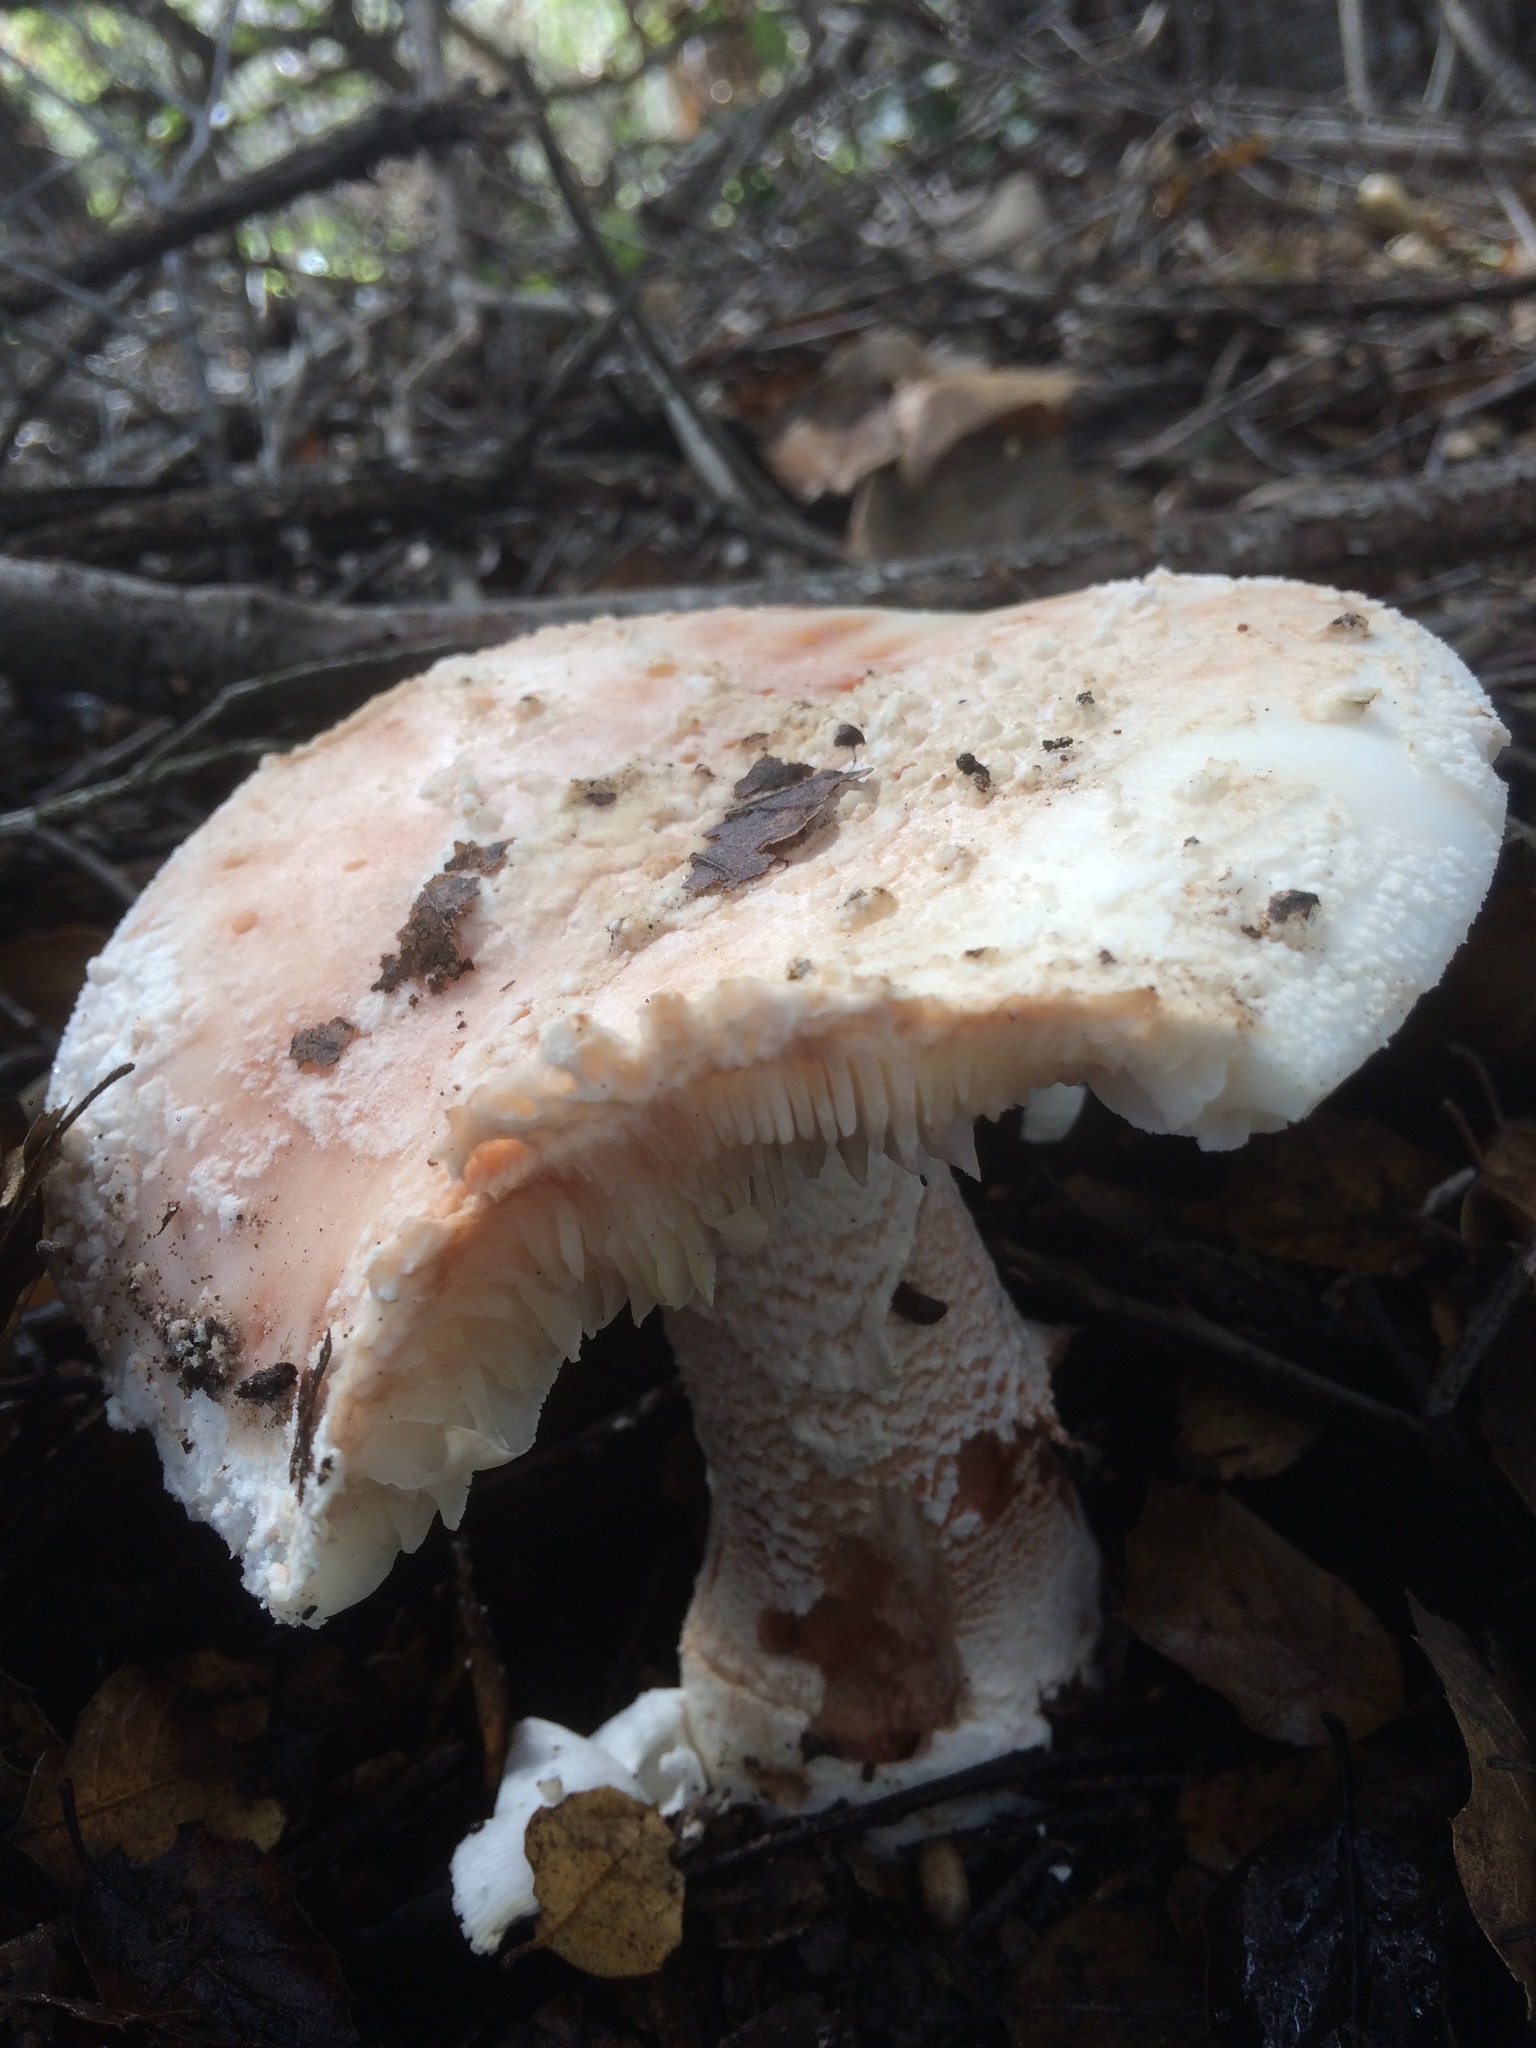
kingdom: Fungi
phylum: Basidiomycota
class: Agaricomycetes
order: Agaricales
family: Amanitaceae
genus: Amanita
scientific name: Amanita novinupta
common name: Blushing bride
